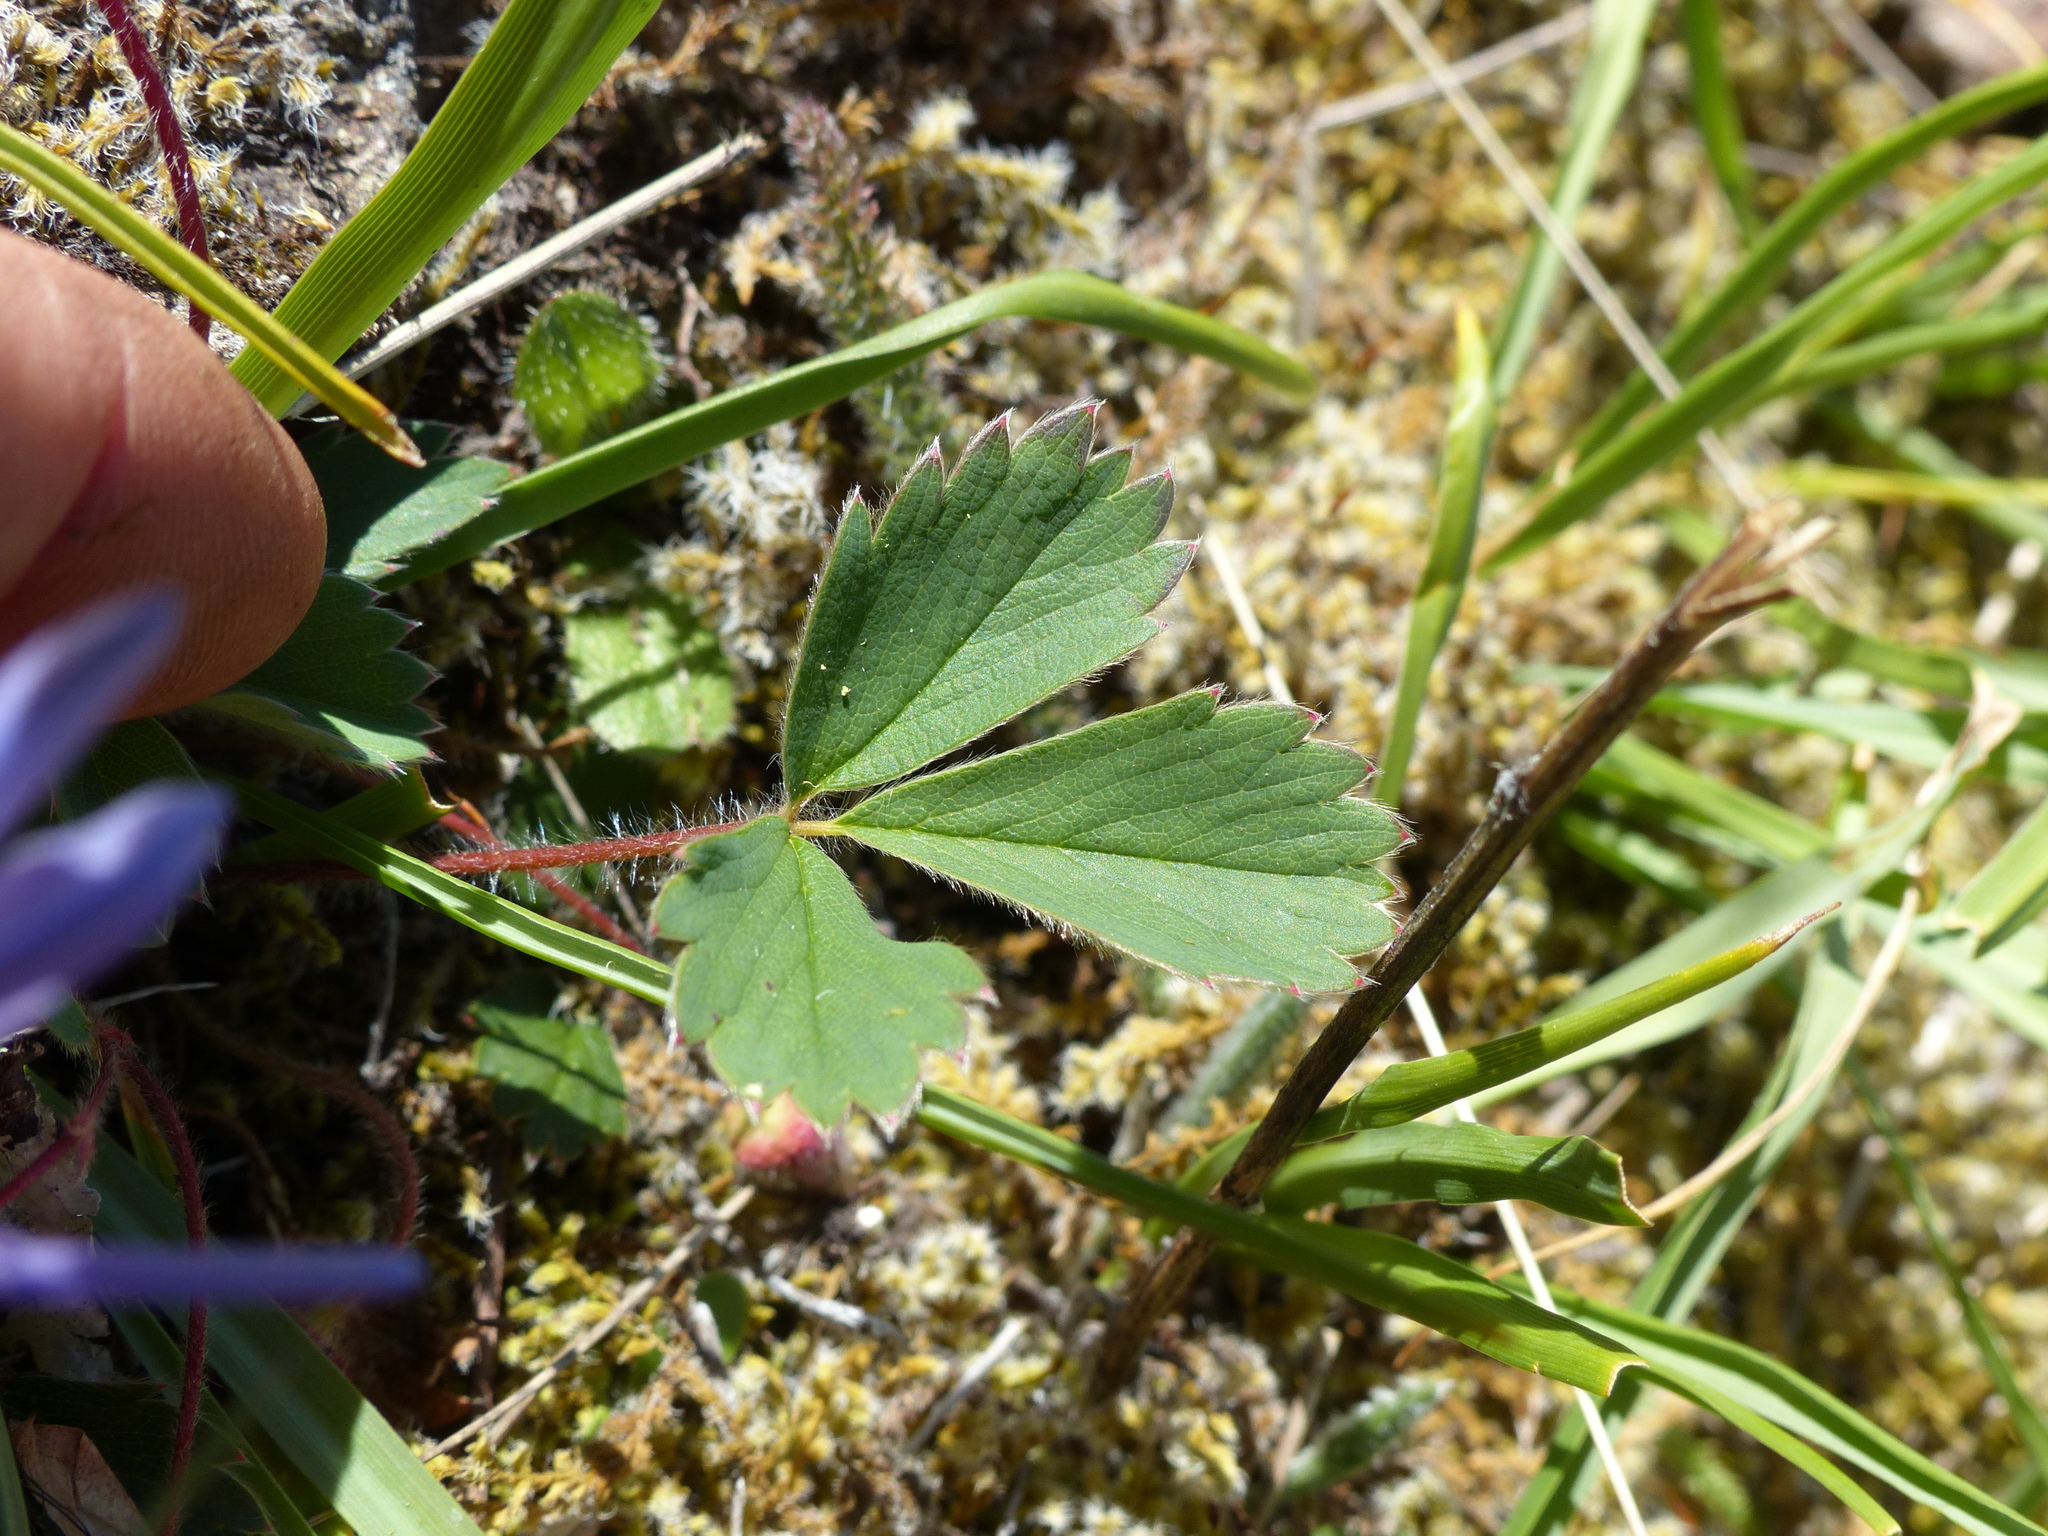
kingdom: Plantae
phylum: Tracheophyta
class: Magnoliopsida
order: Rosales
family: Rosaceae
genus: Fragaria
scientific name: Fragaria virginiana
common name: Thickleaved wild strawberry
